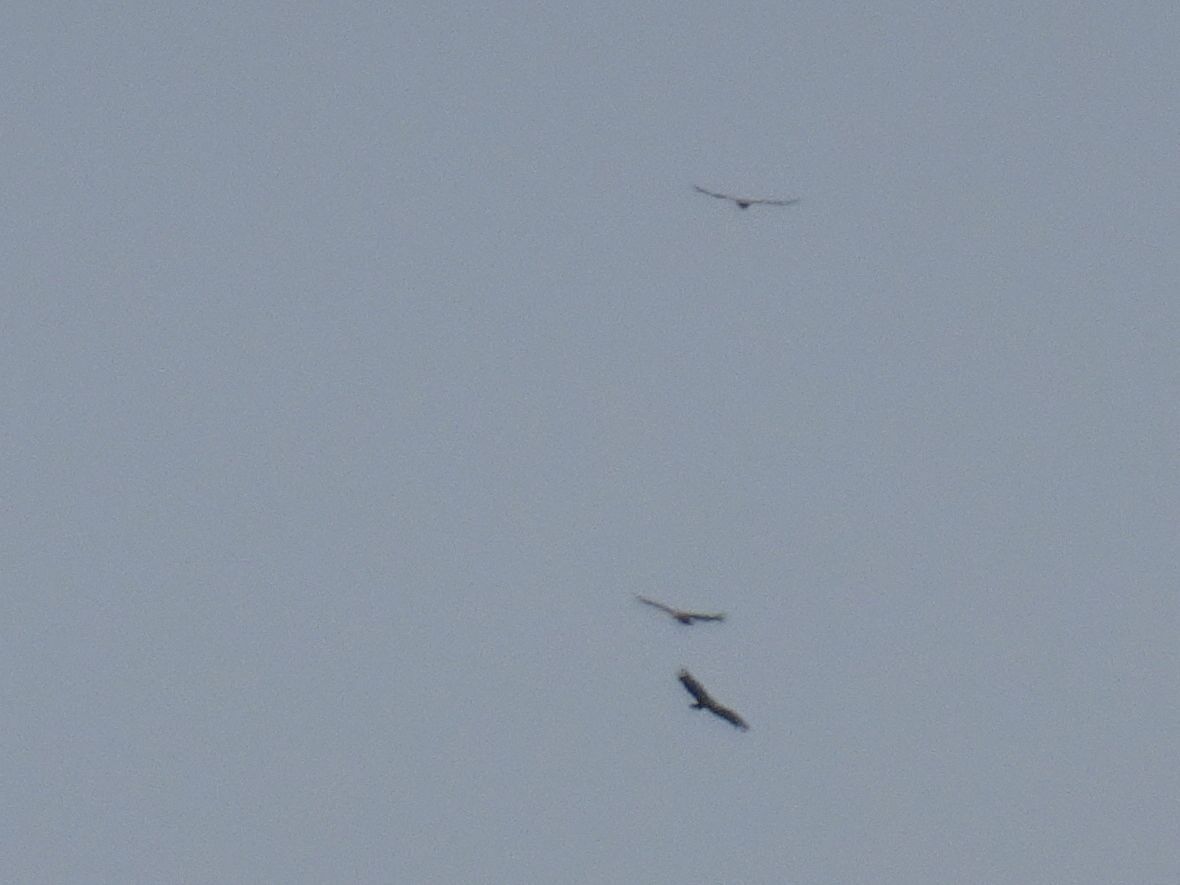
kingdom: Animalia
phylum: Chordata
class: Aves
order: Accipitriformes
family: Accipitridae
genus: Gyps
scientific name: Gyps fulvus
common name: Griffon vulture
